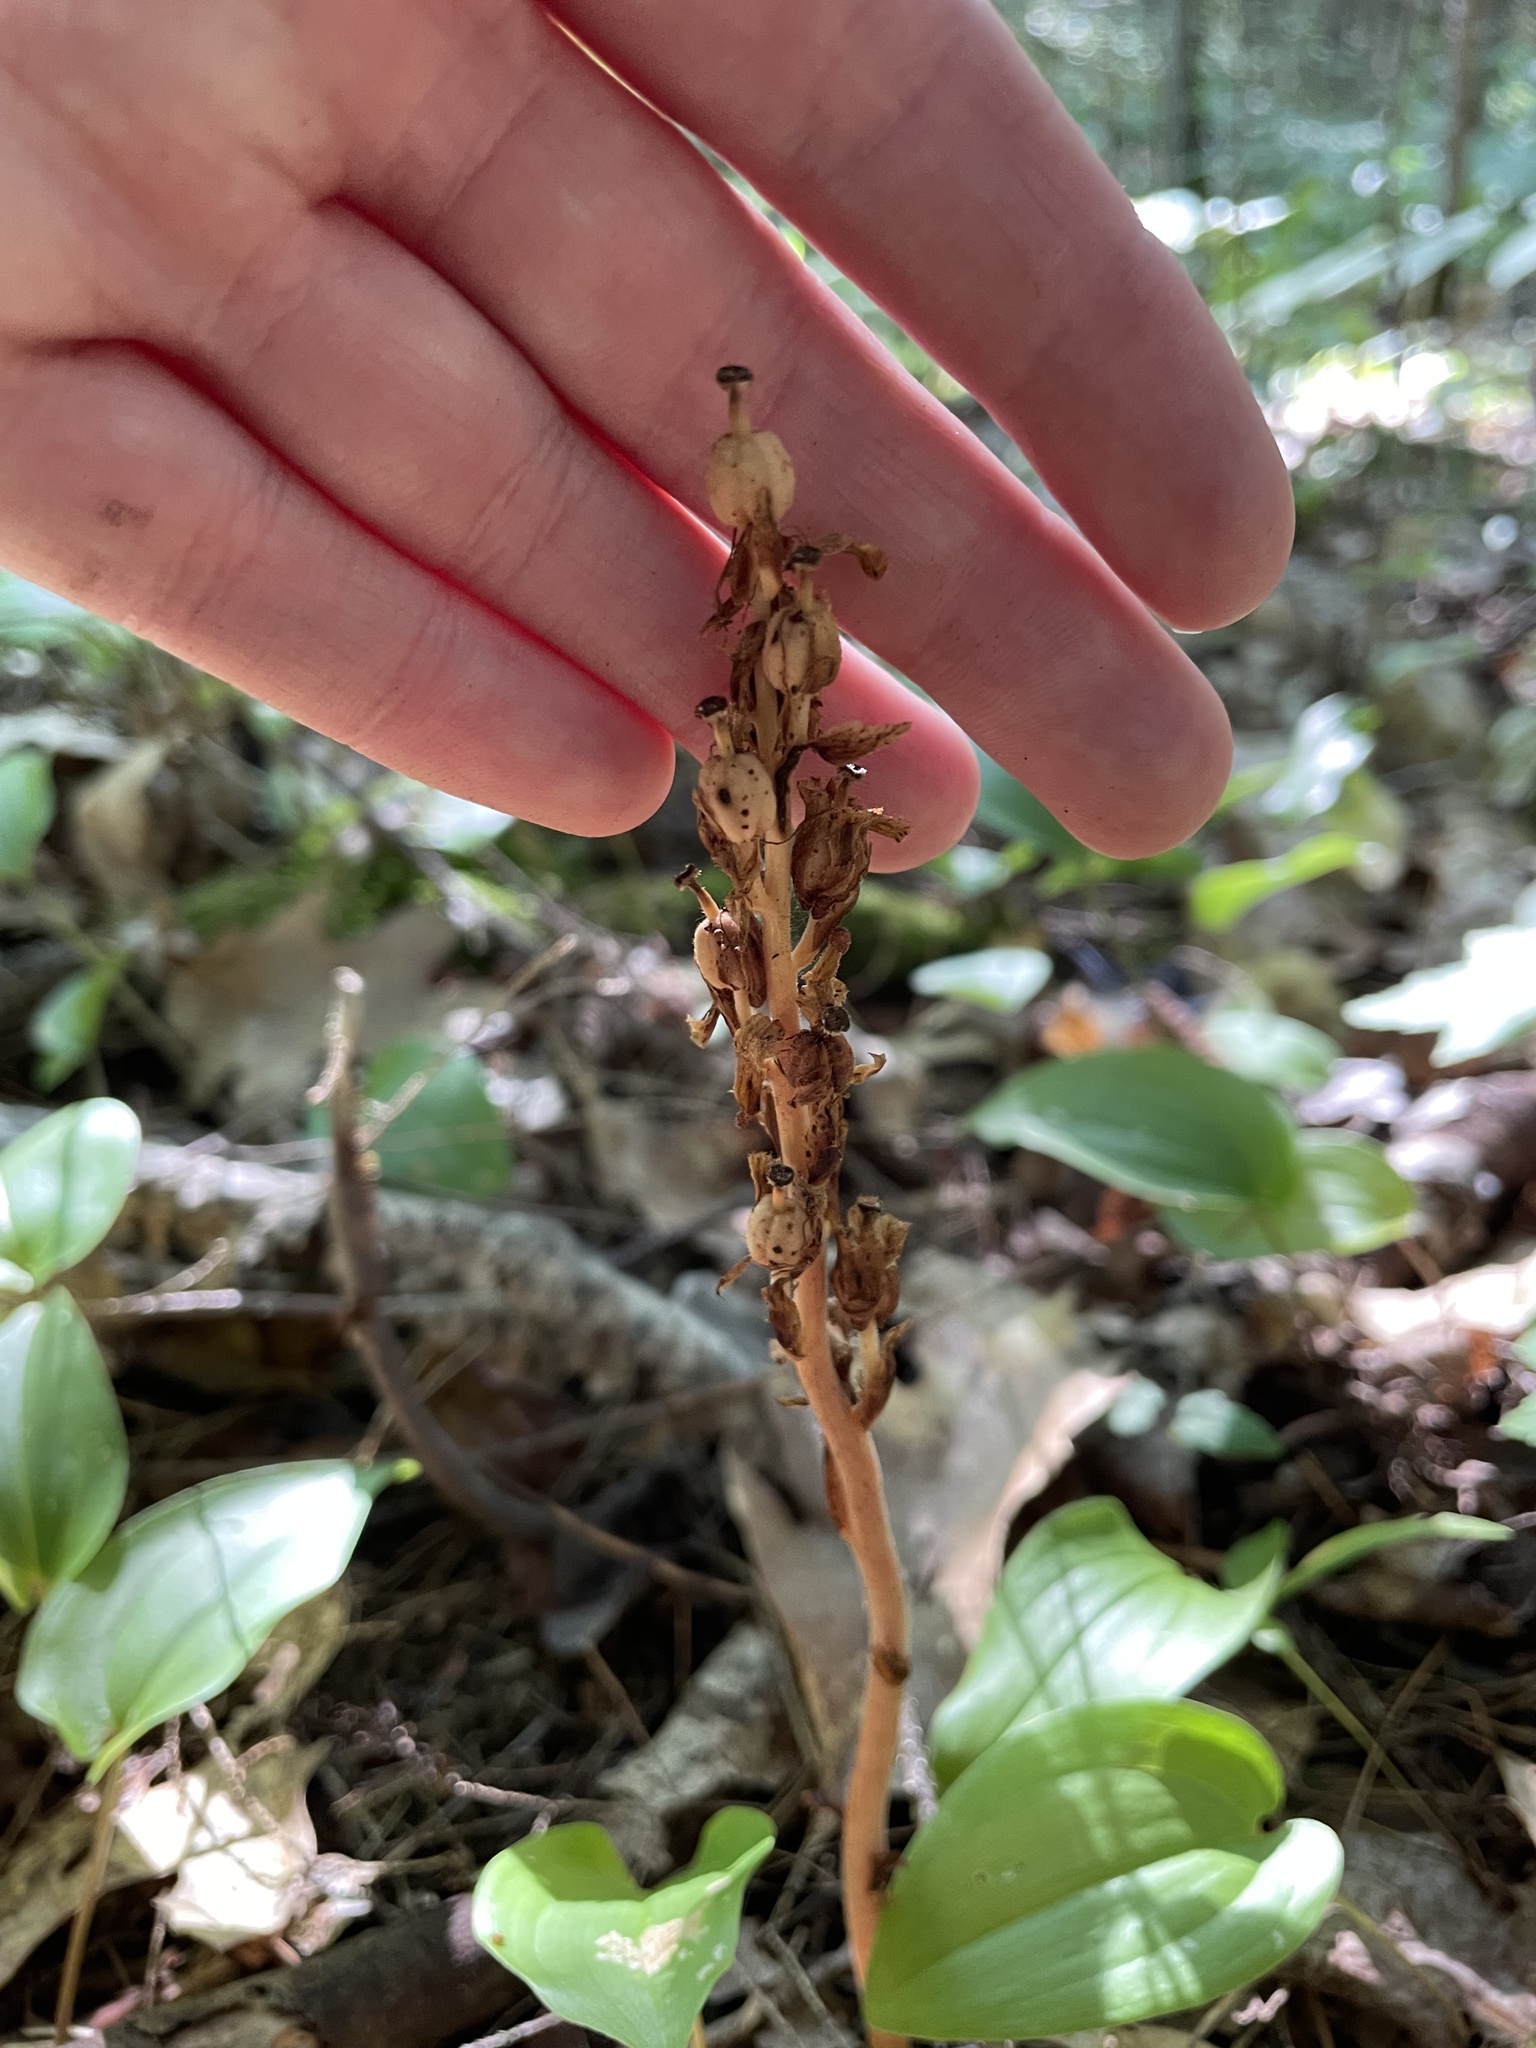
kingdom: Plantae
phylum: Tracheophyta
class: Magnoliopsida
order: Ericales
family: Ericaceae
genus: Hypopitys
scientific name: Hypopitys monotropa
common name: Yellow bird's-nest
